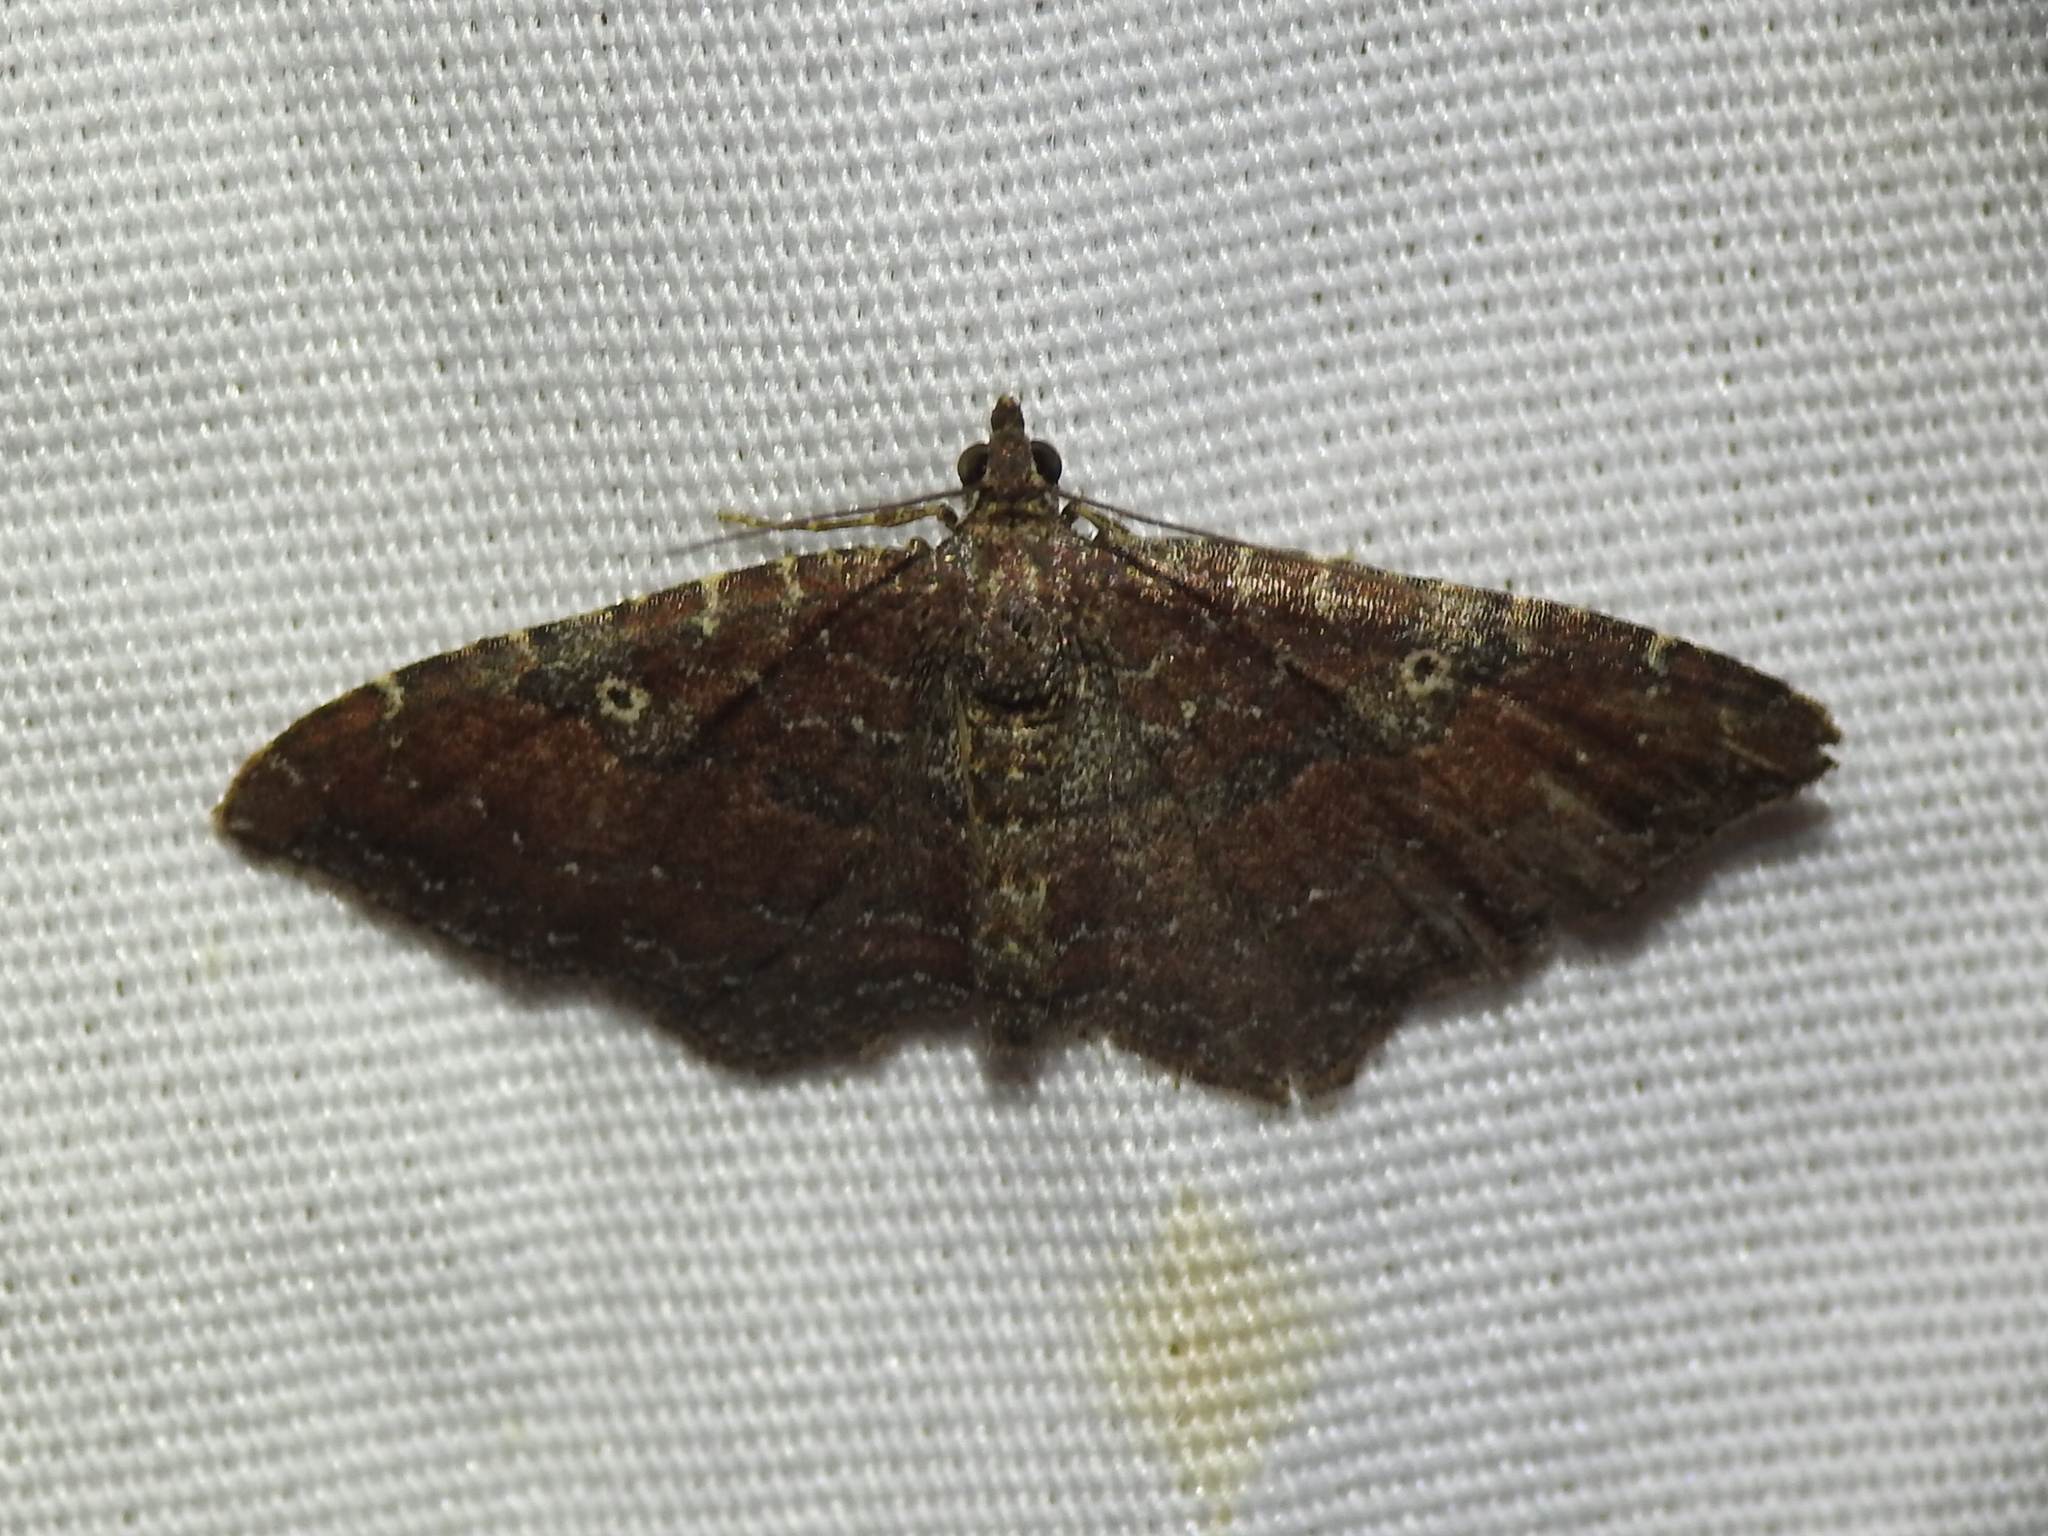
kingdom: Animalia
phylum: Arthropoda
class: Insecta
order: Lepidoptera
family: Geometridae
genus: Orthonama
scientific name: Orthonama obstipata
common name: The gem
